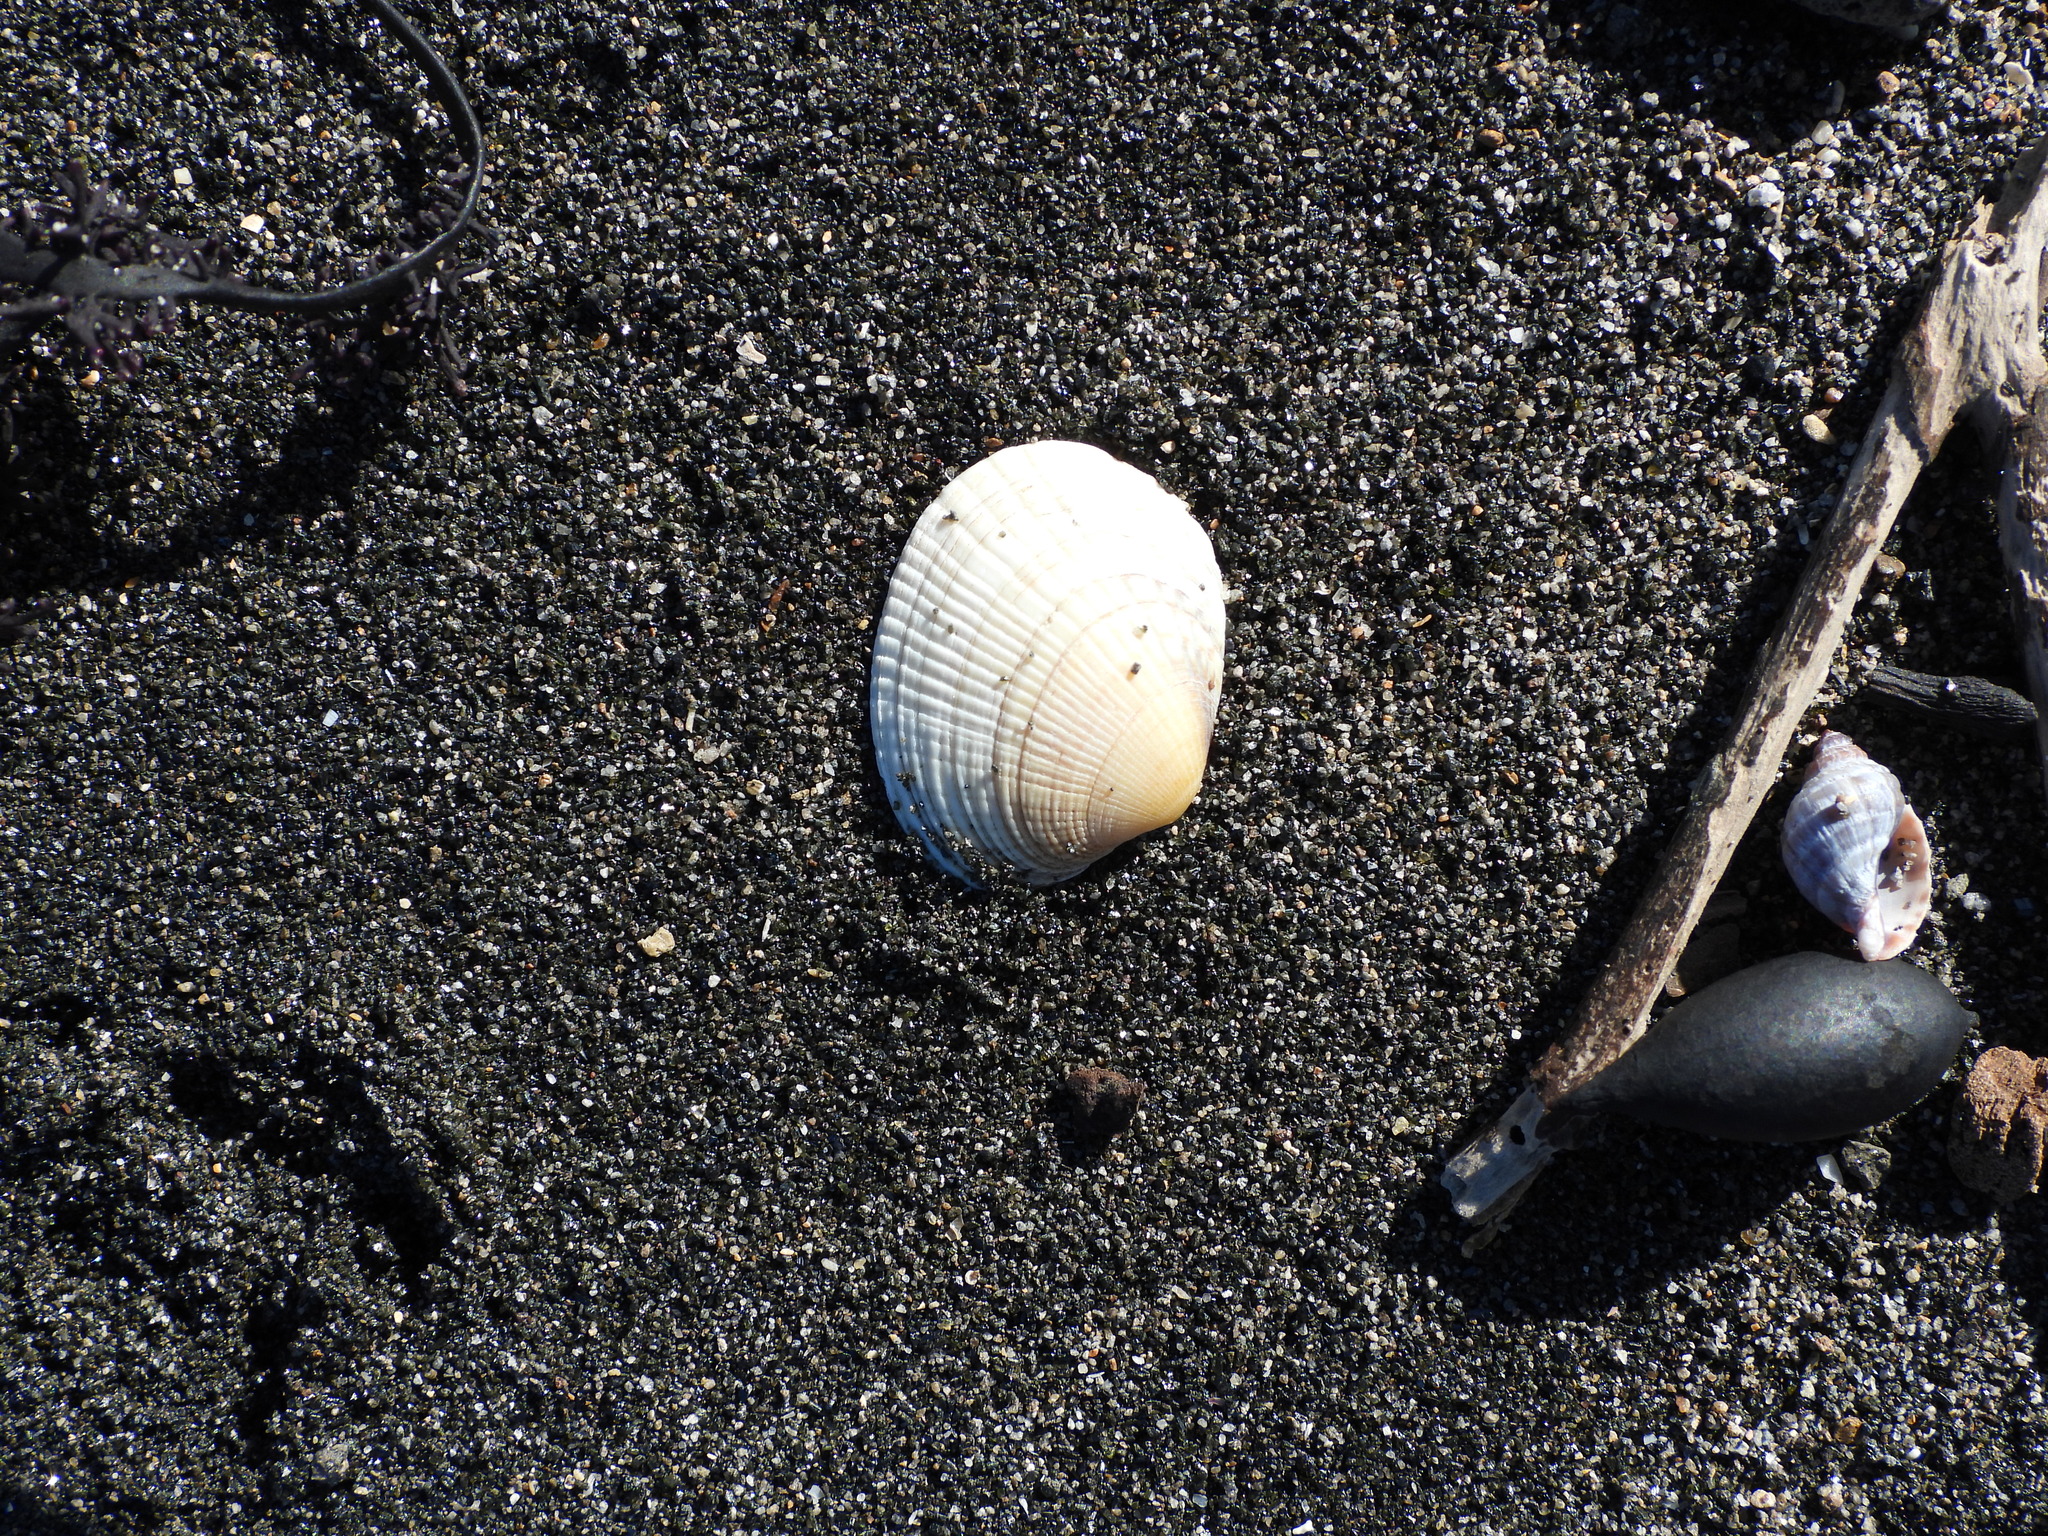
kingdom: Animalia
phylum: Mollusca
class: Bivalvia
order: Venerida
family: Veneridae
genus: Leukoma
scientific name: Leukoma crassicosta
